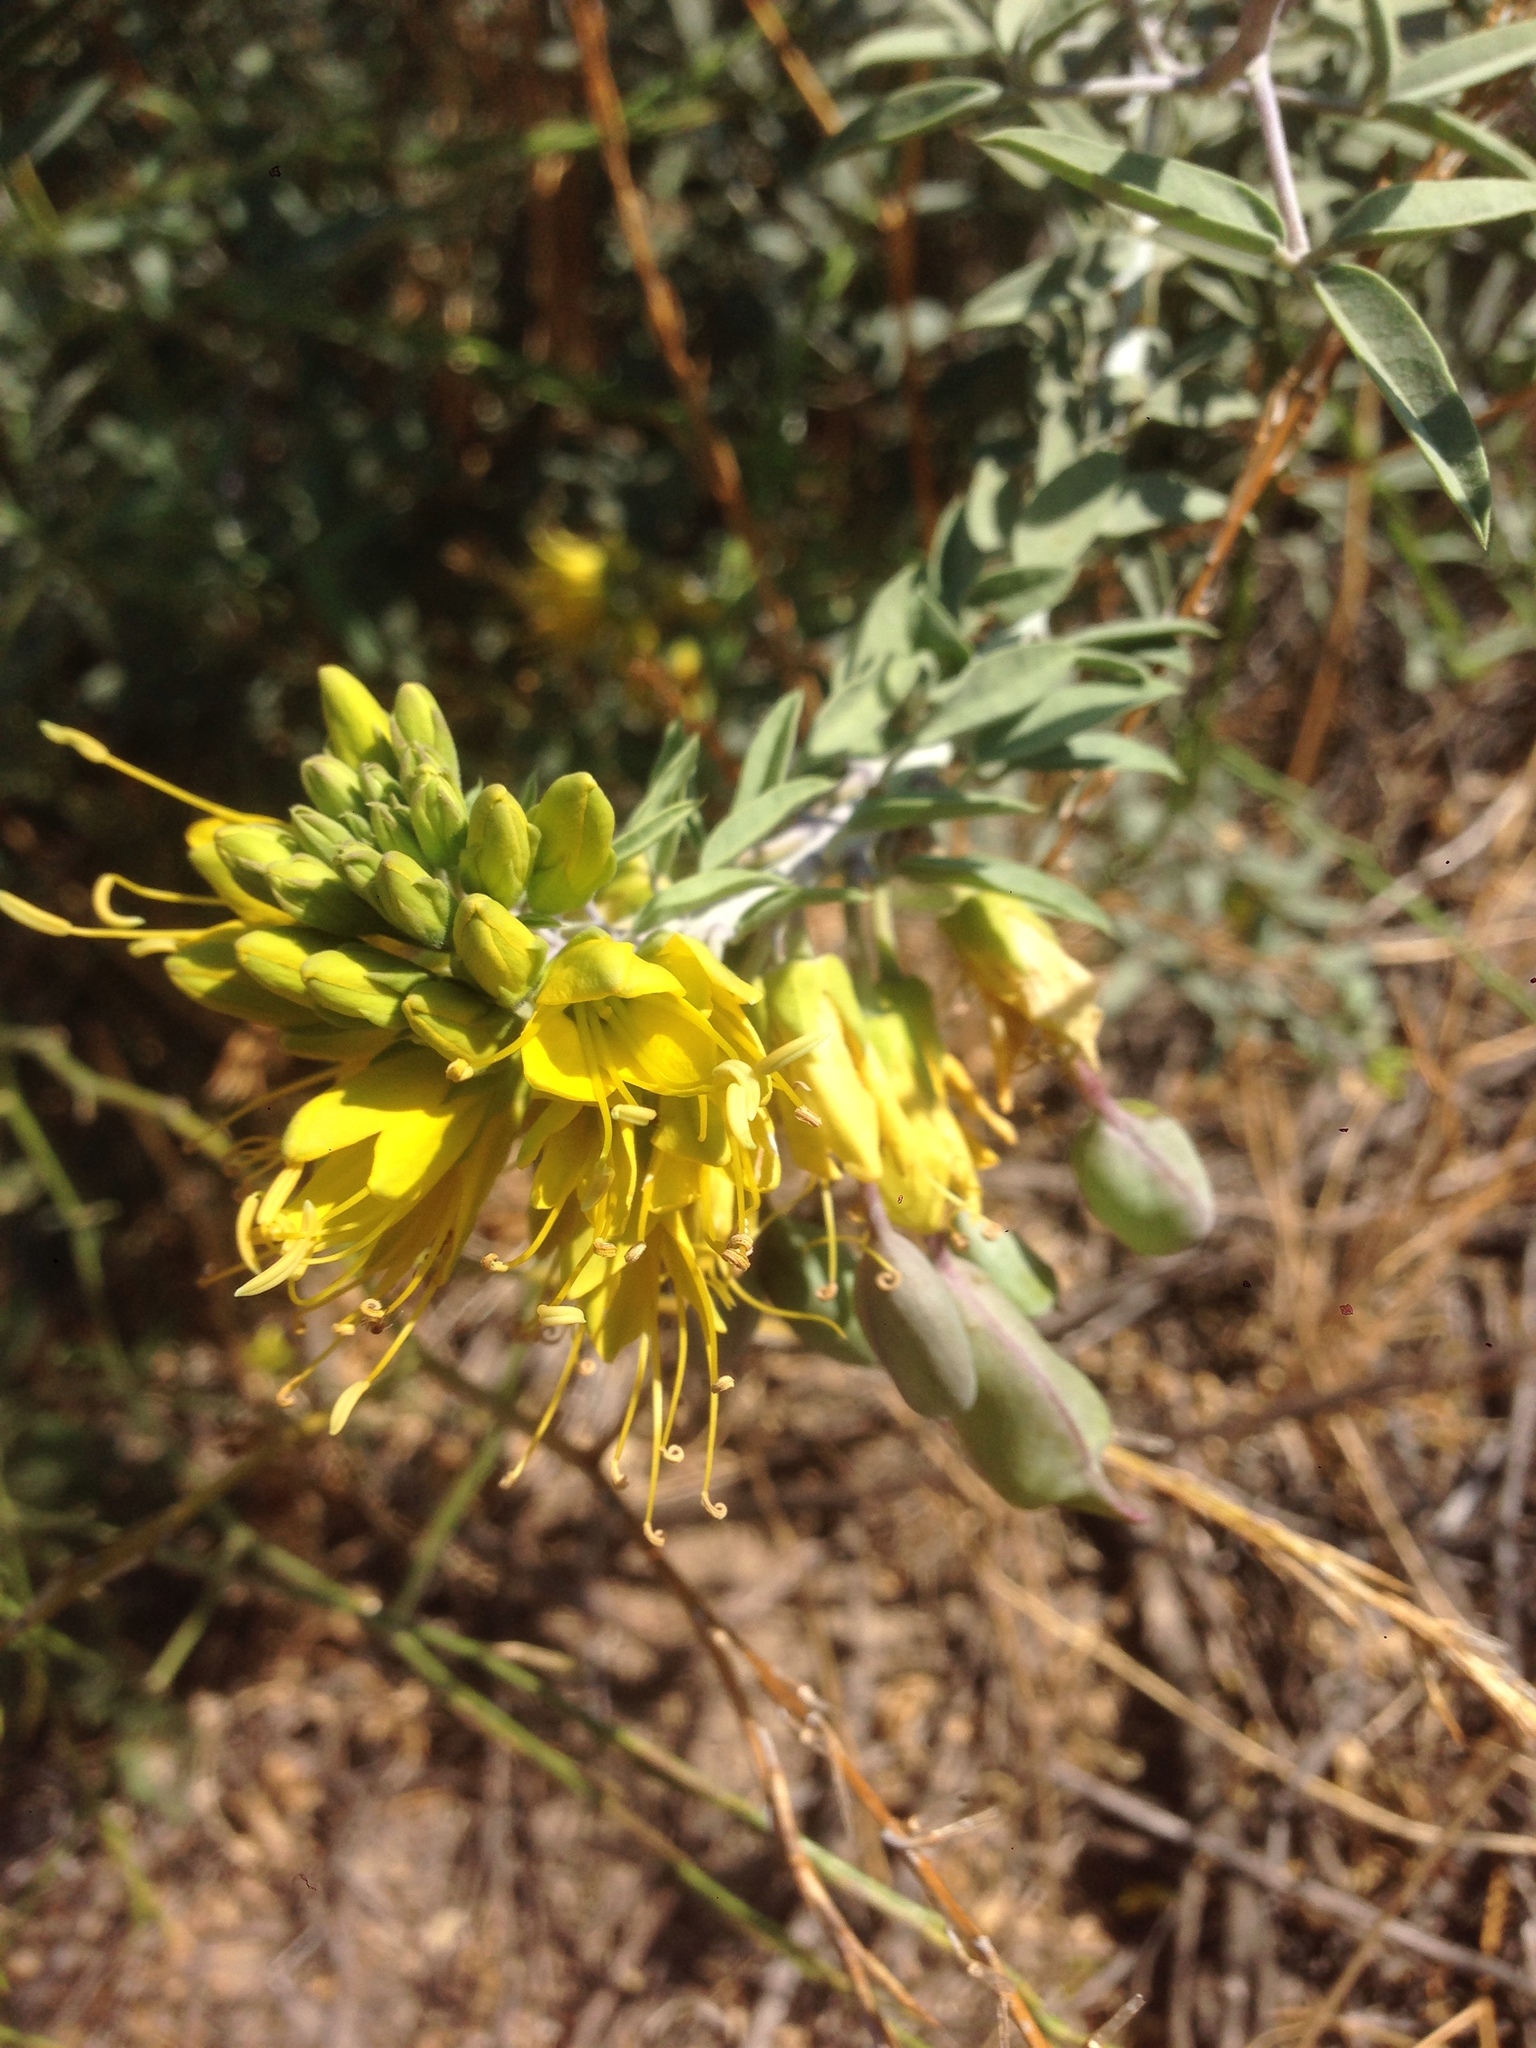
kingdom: Plantae
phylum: Tracheophyta
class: Magnoliopsida
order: Brassicales
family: Cleomaceae
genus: Cleomella
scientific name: Cleomella arborea
